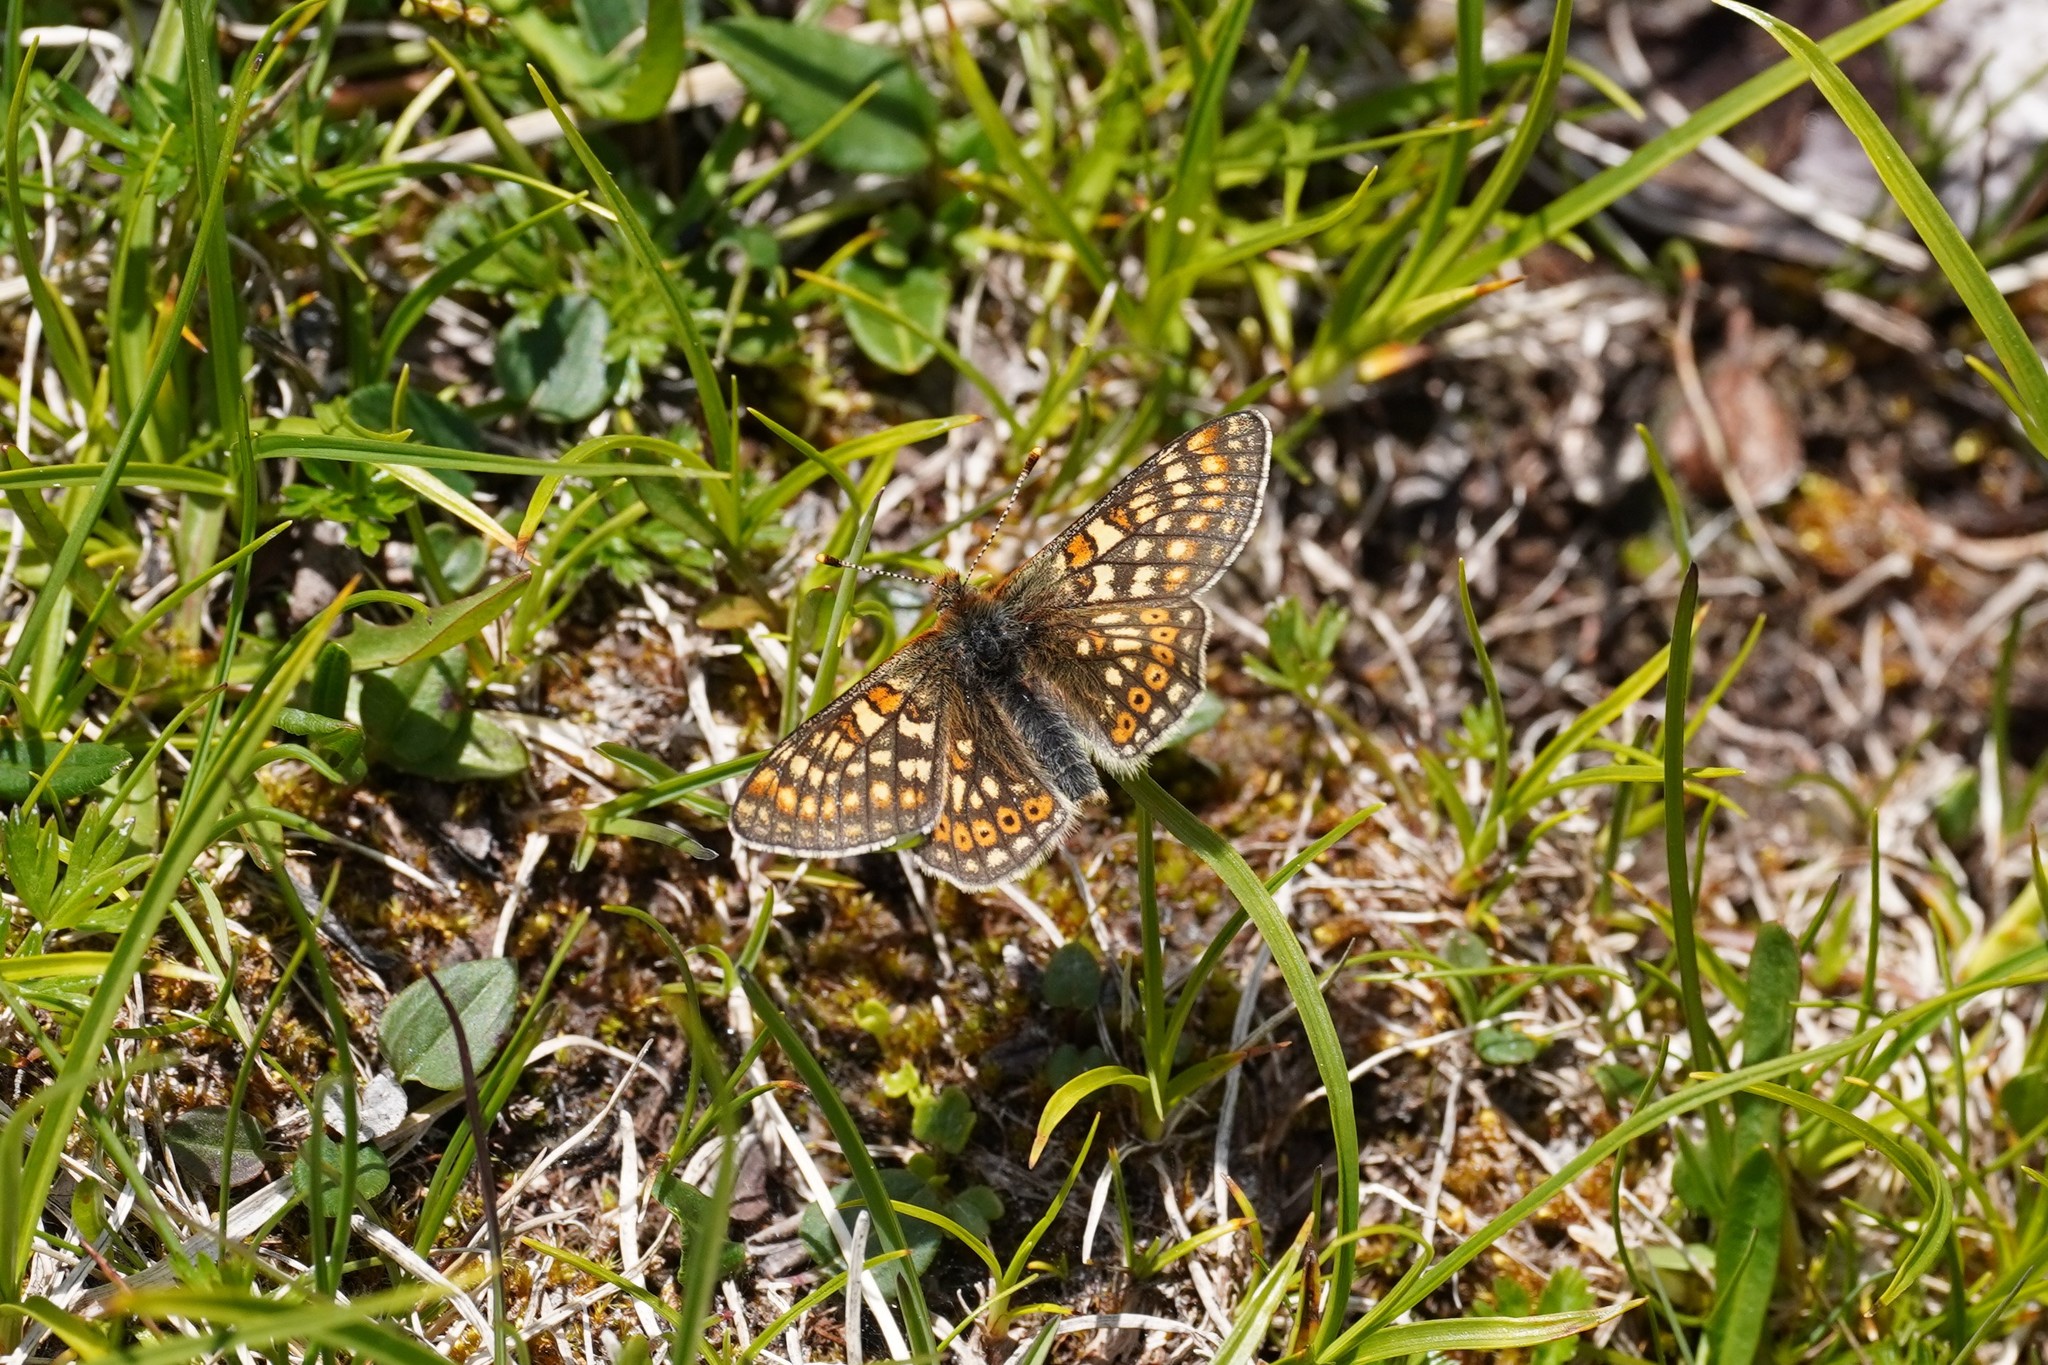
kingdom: Animalia
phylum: Arthropoda
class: Insecta
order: Lepidoptera
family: Nymphalidae
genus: Euphydryas
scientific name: Euphydryas aurinia
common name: Marsh fritillary
